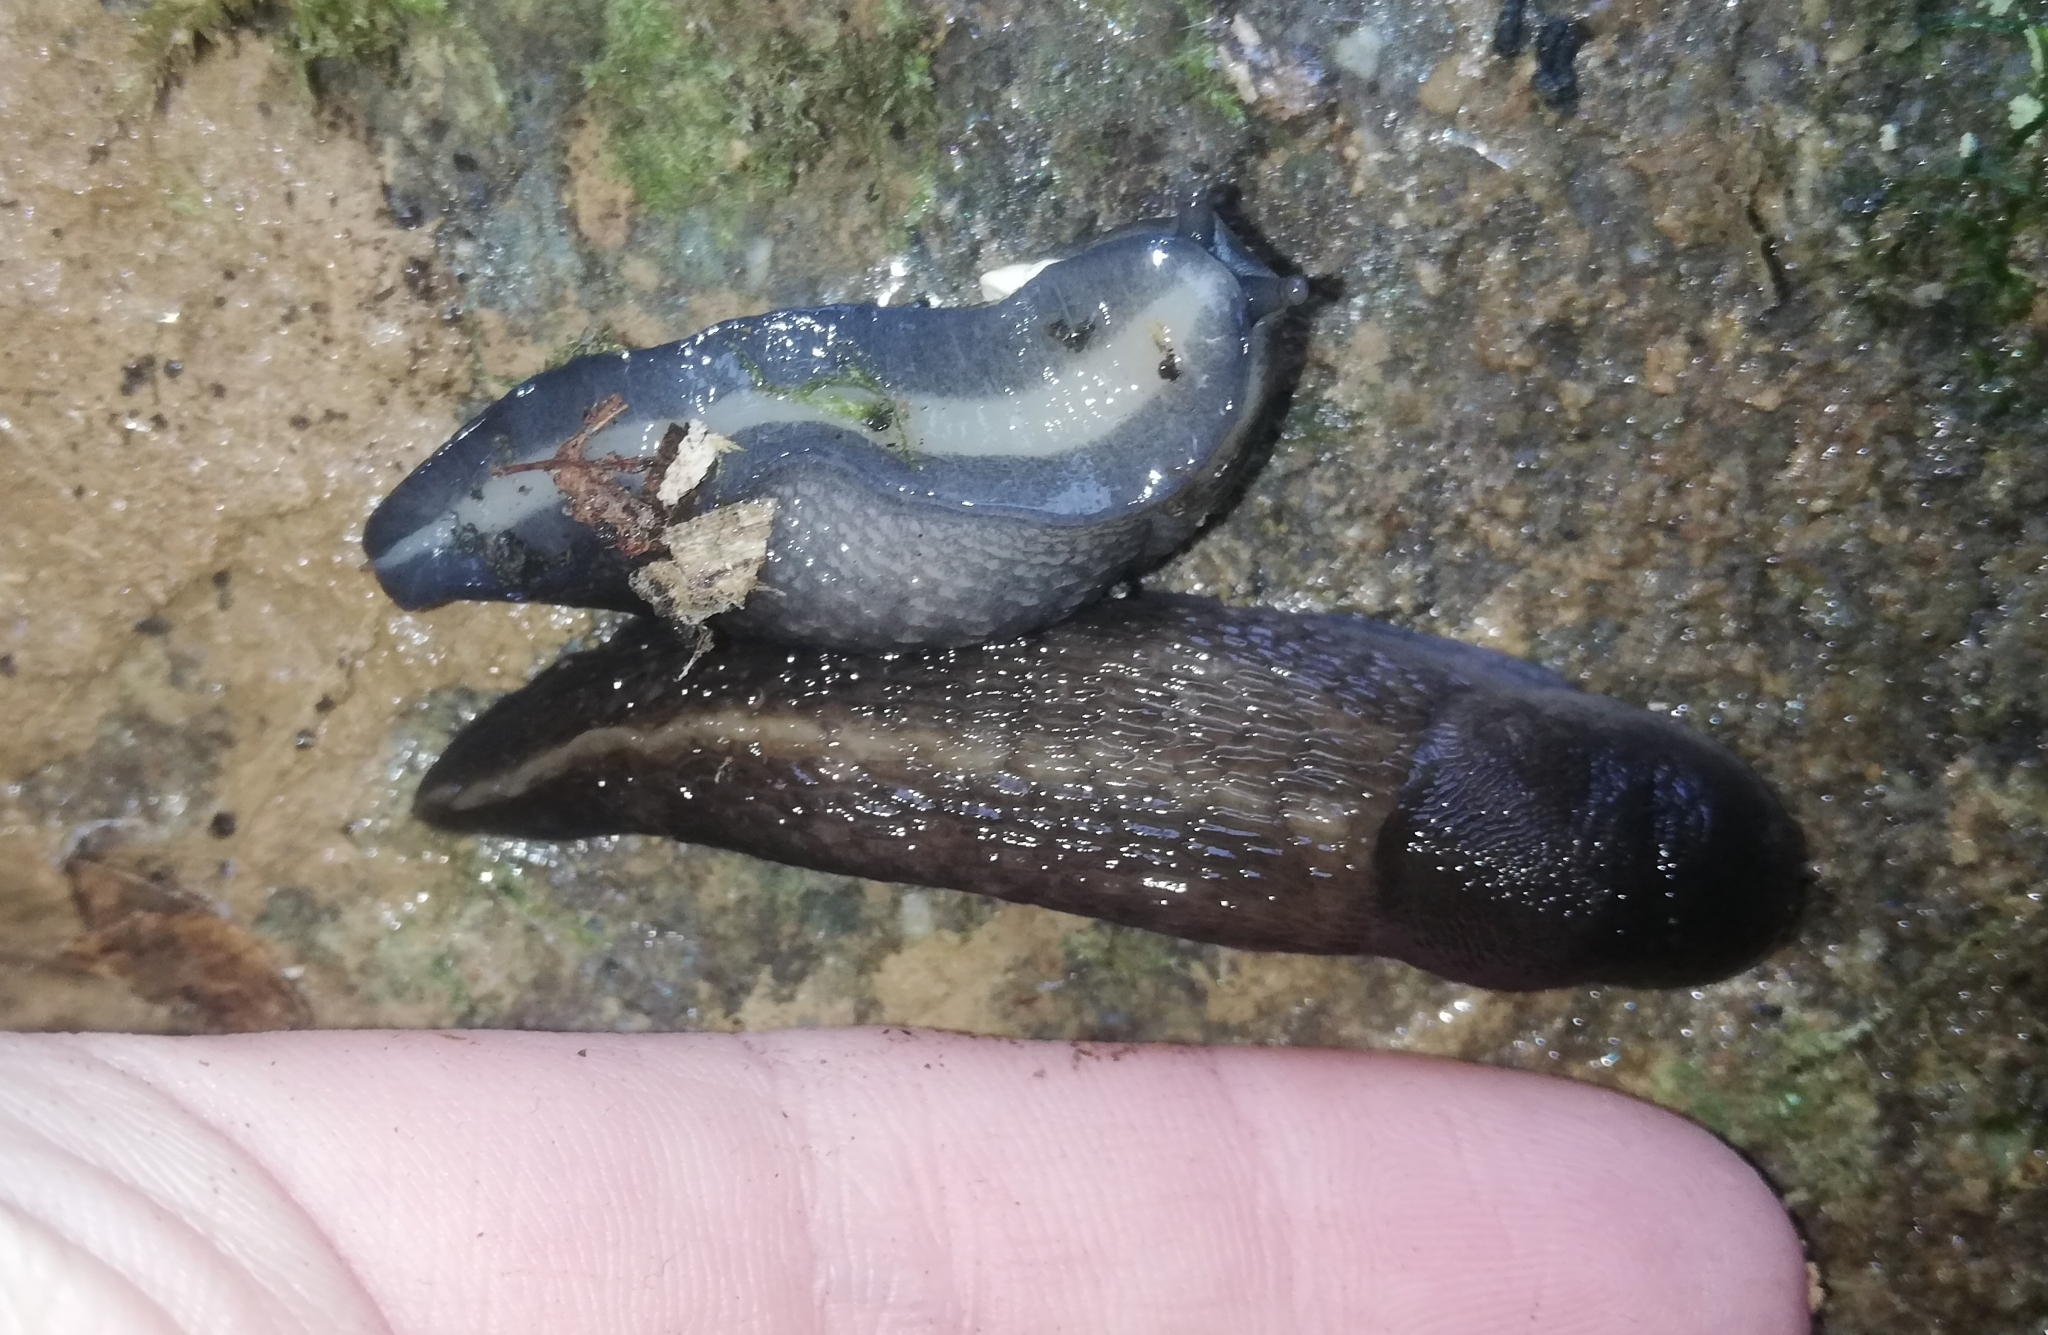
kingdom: Animalia
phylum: Mollusca
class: Gastropoda
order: Stylommatophora
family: Limacidae
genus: Limax
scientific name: Limax cinereoniger
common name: Ash-black slug
